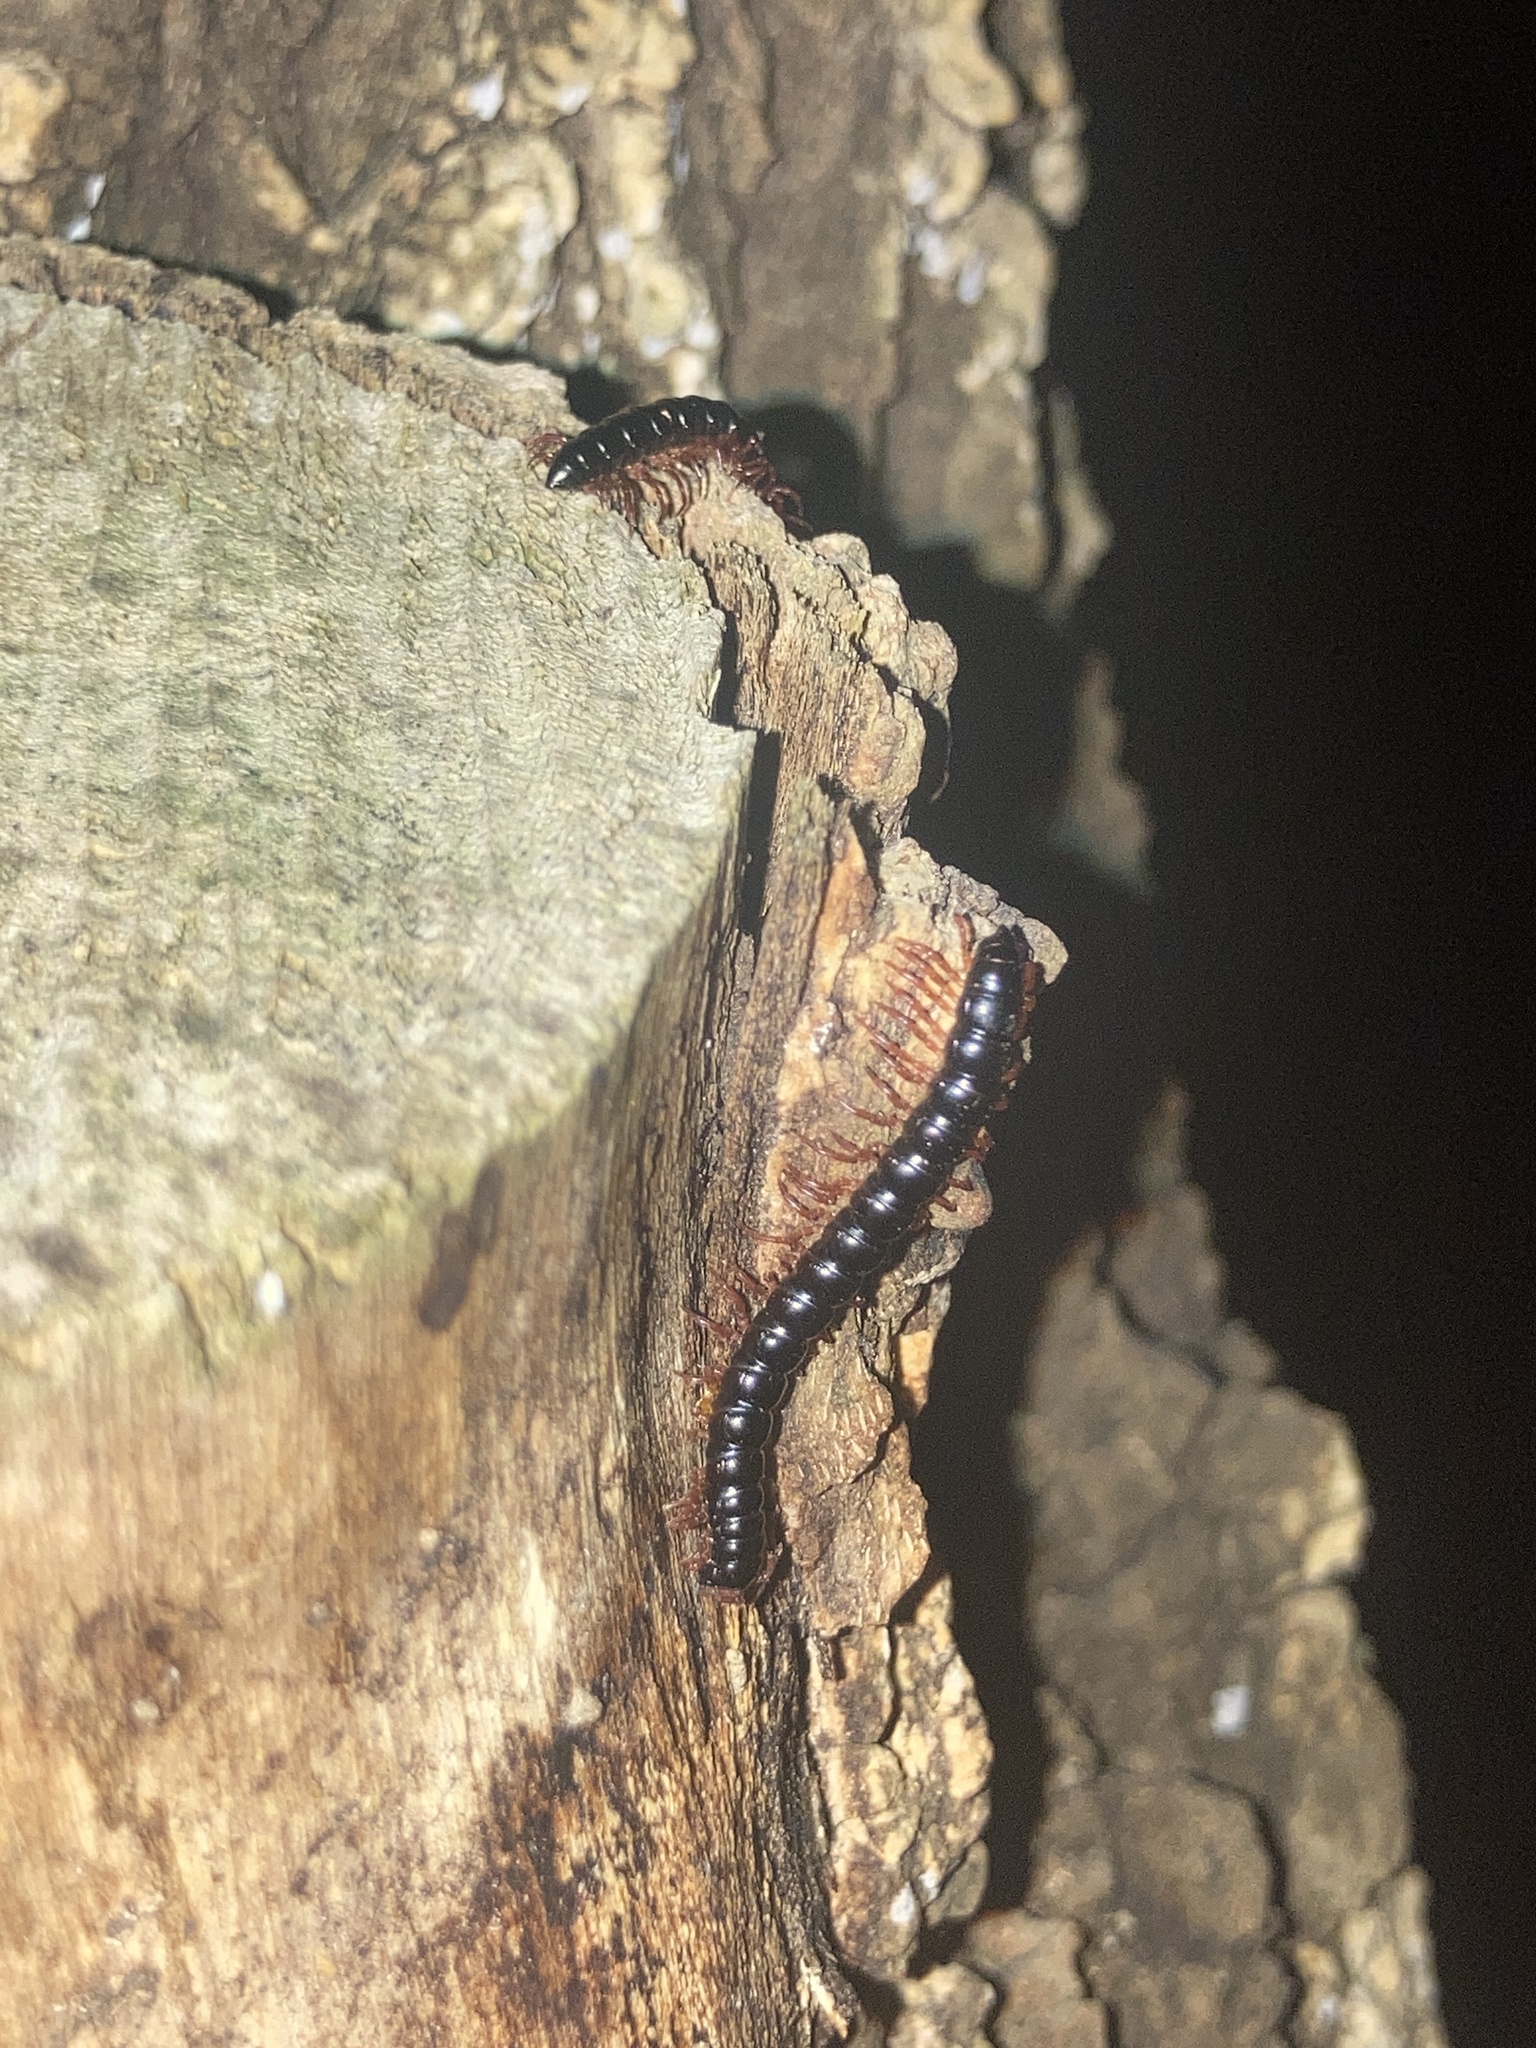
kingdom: Animalia
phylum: Arthropoda
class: Diplopoda
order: Polydesmida
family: Paradoxosomatidae
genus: Heterocladosoma
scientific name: Heterocladosoma
